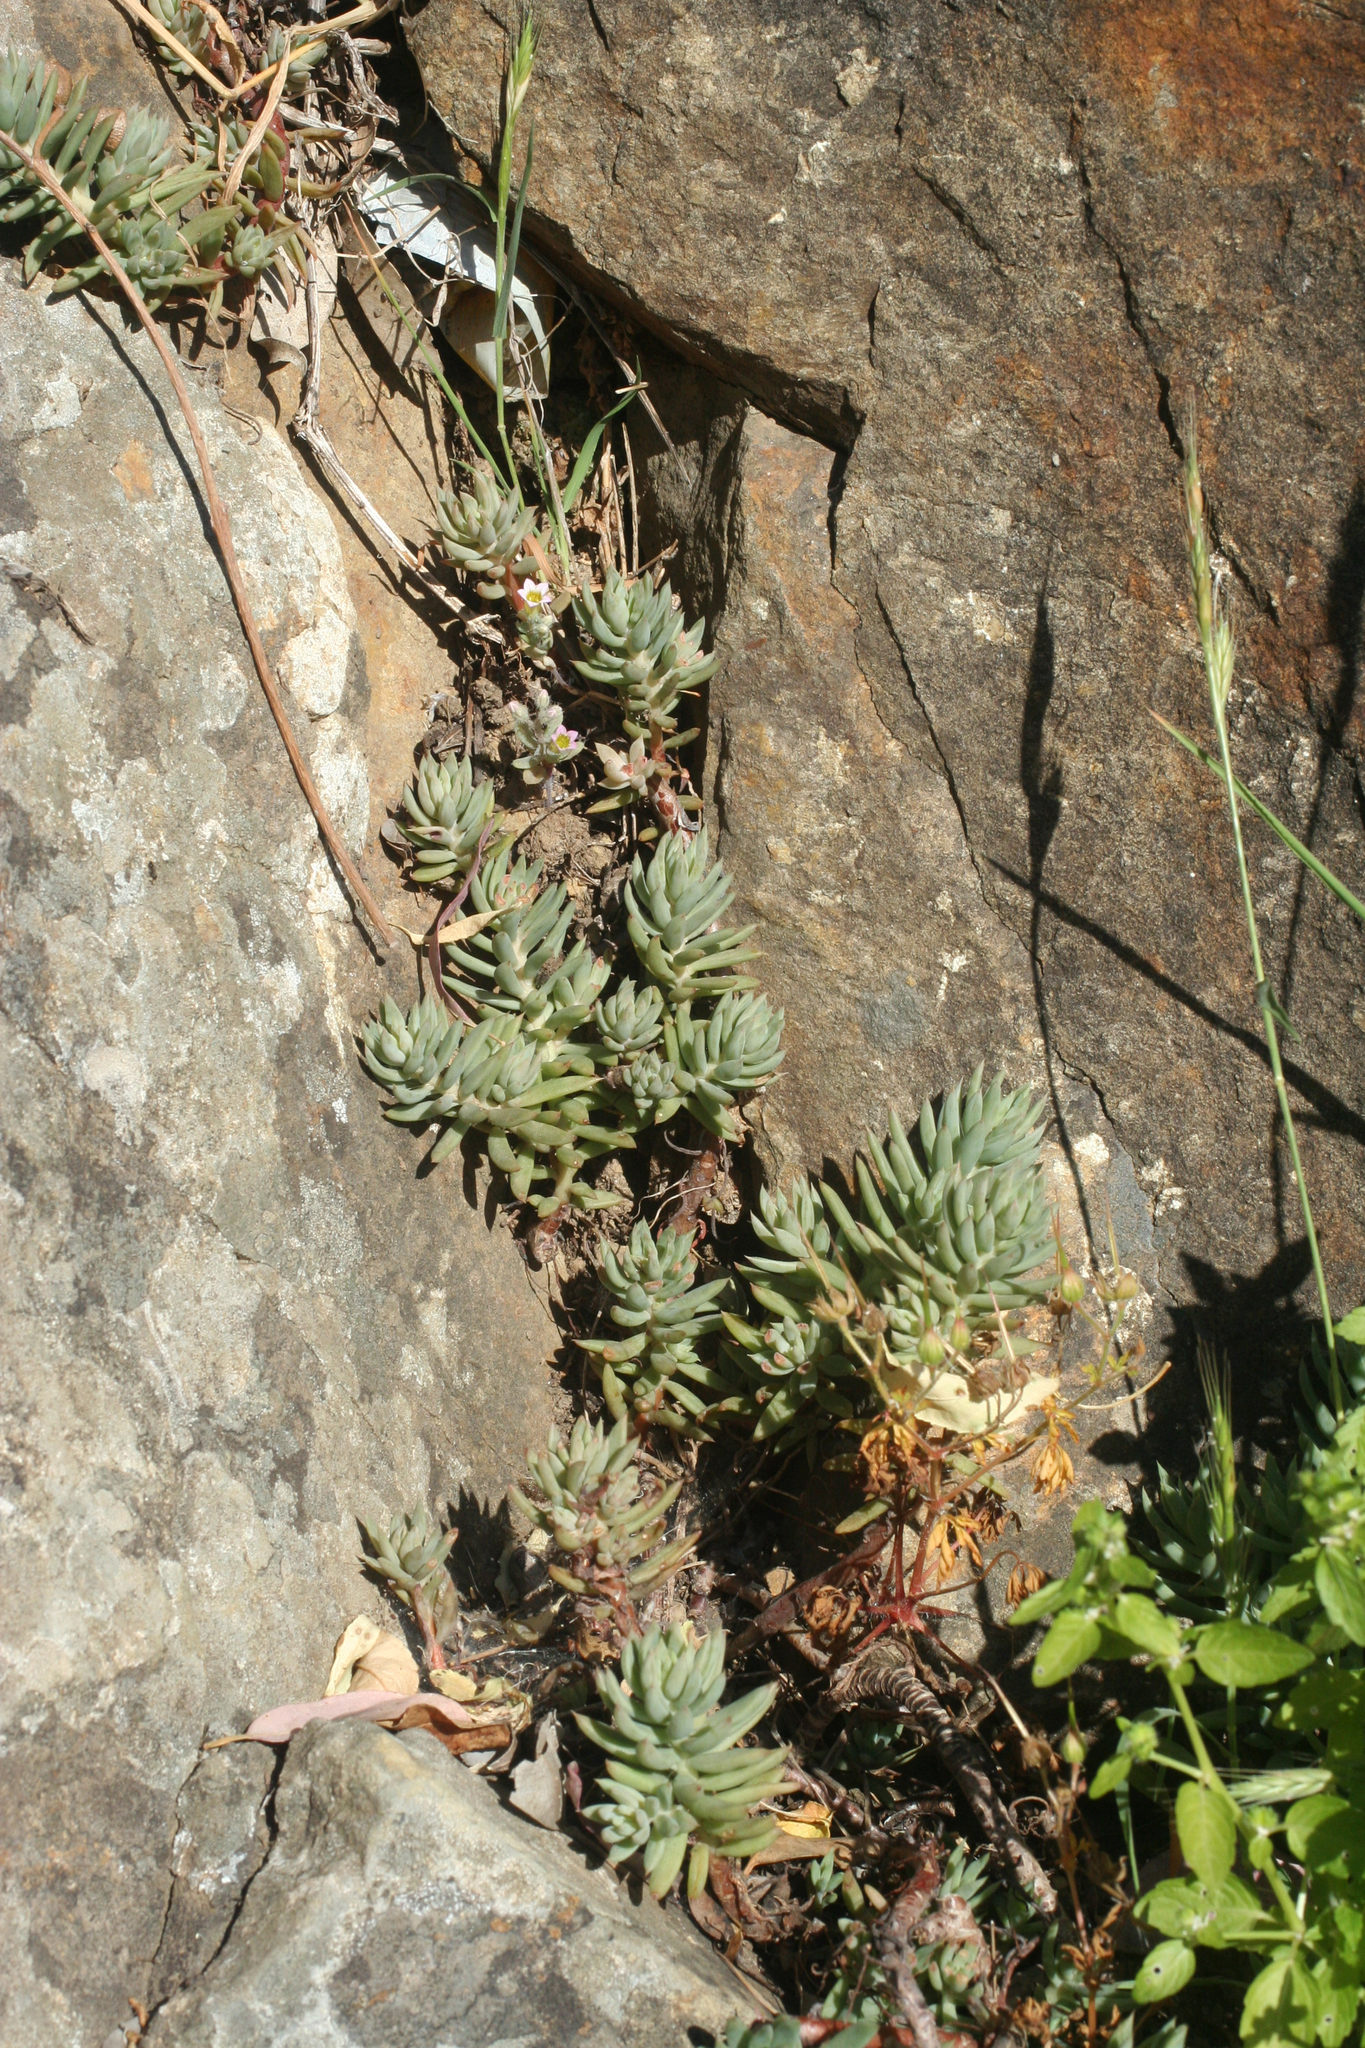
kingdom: Plantae
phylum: Tracheophyta
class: Magnoliopsida
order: Saxifragales
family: Crassulaceae
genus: Petrosedum
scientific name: Petrosedum sediforme
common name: Pale stonecrop
